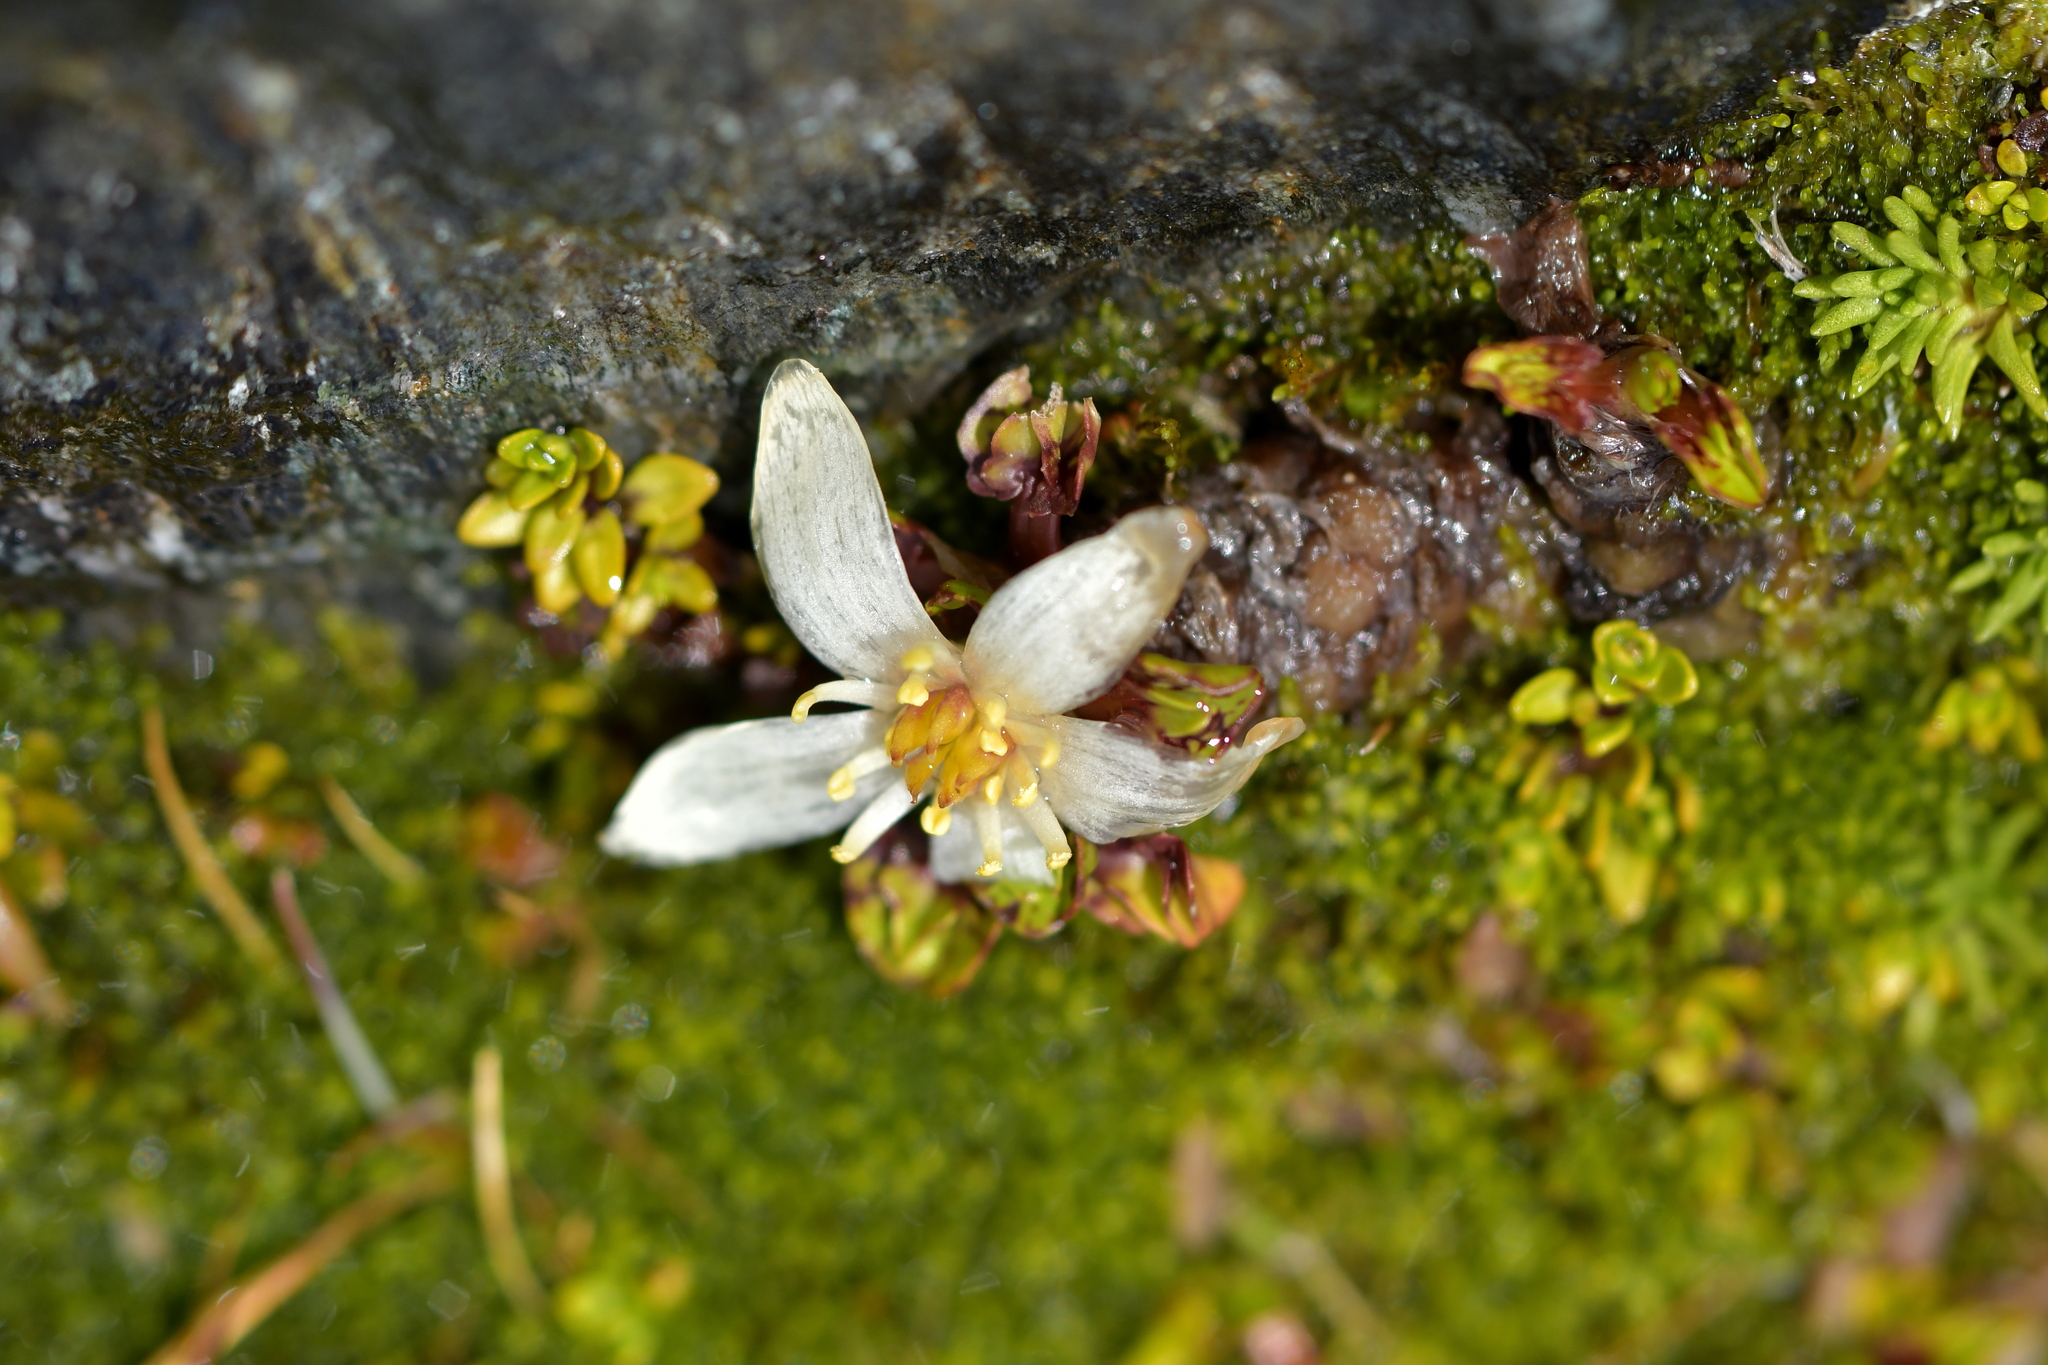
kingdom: Plantae
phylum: Tracheophyta
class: Magnoliopsida
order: Ranunculales
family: Ranunculaceae
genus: Caltha
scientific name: Caltha obtusa
